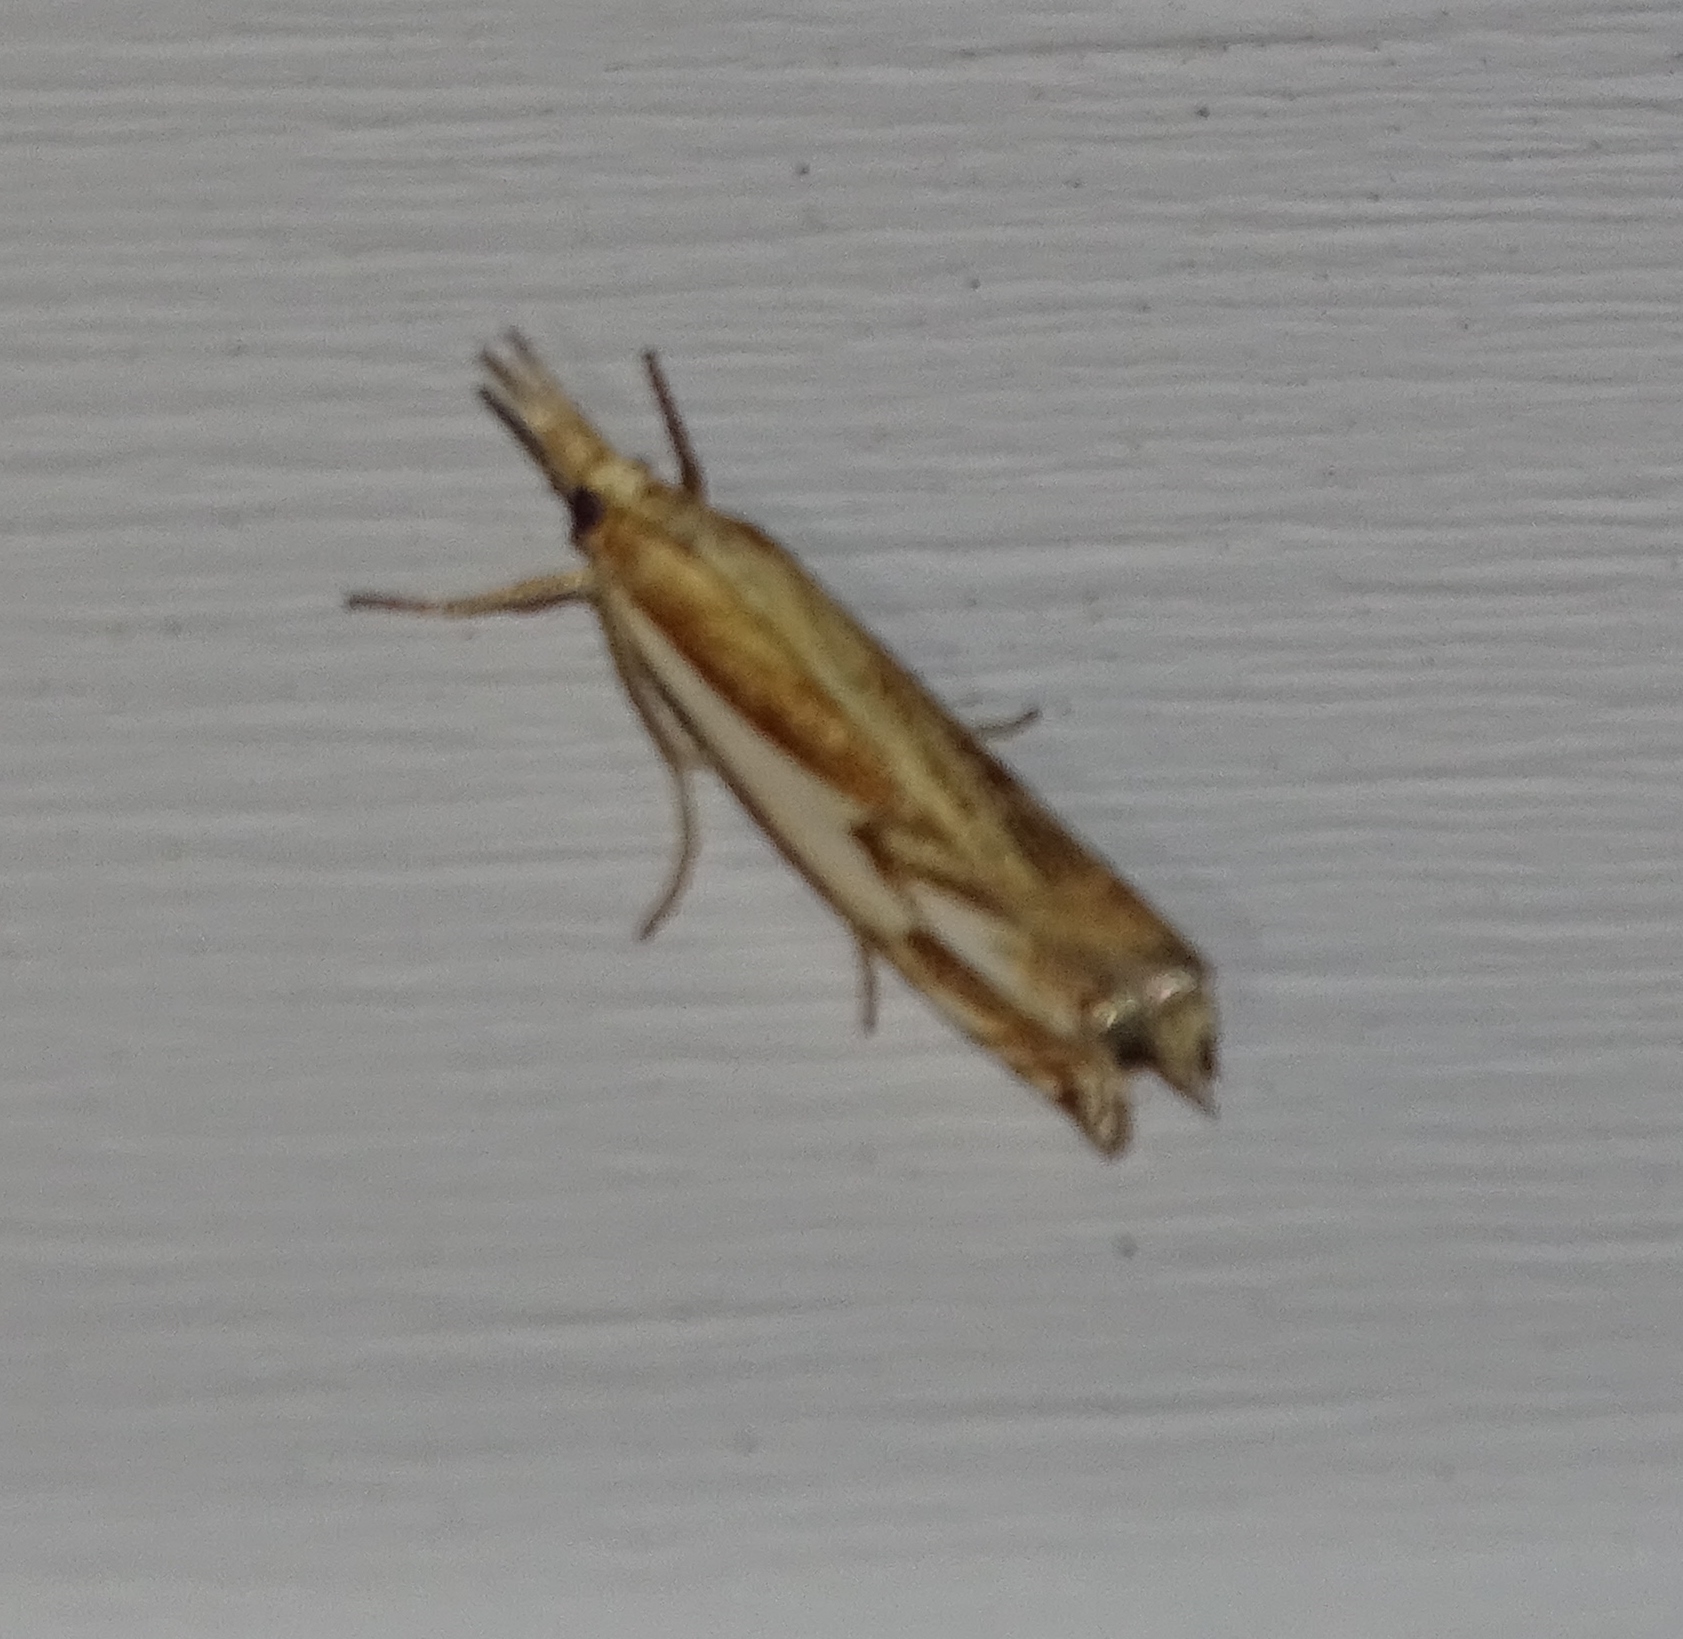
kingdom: Animalia
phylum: Arthropoda
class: Insecta
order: Lepidoptera
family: Crambidae
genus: Crambus
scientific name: Crambus agitatellus
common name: Double-banded grass-veneer
